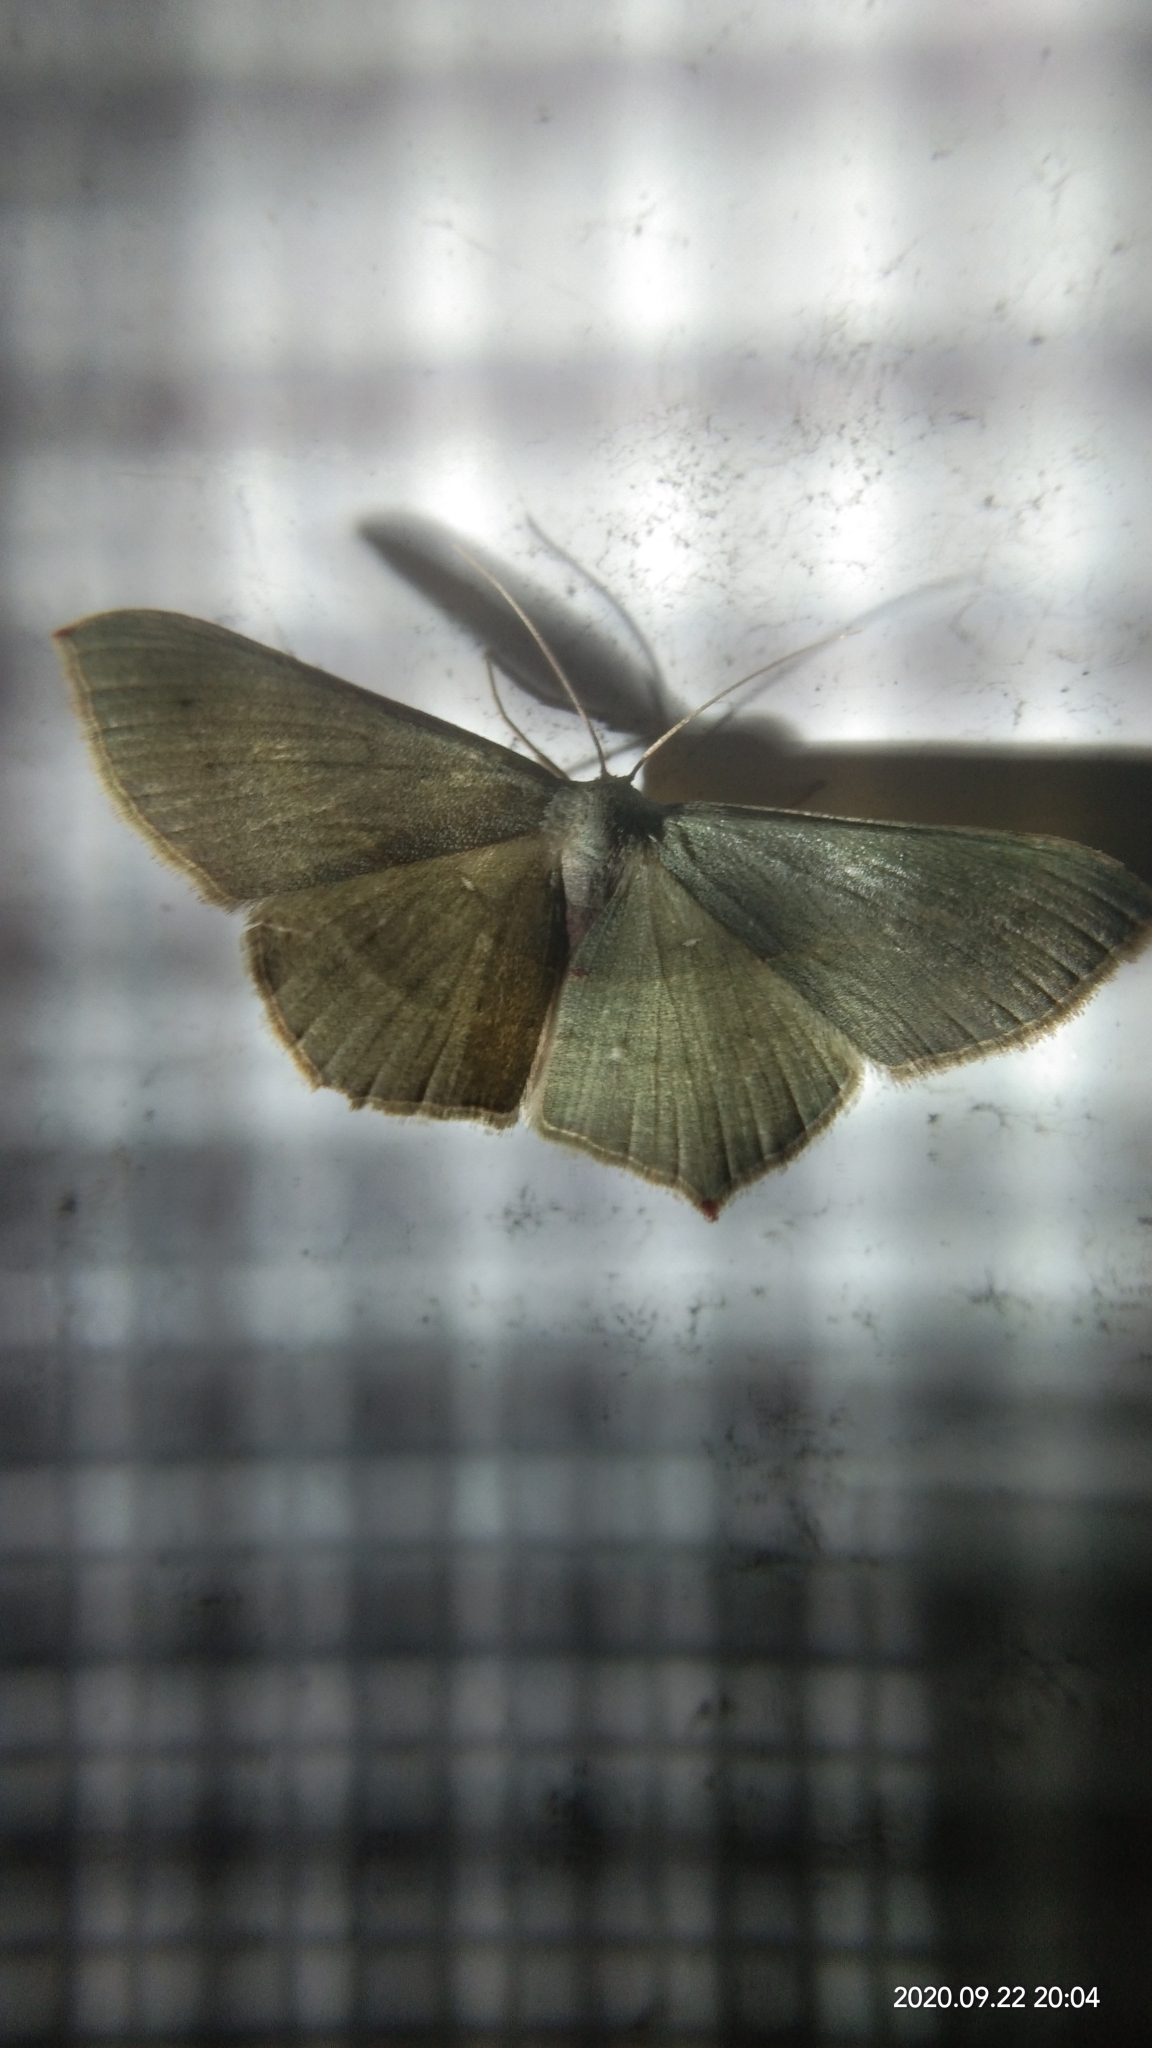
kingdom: Animalia
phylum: Arthropoda
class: Insecta
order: Lepidoptera
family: Geometridae
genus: Traminda
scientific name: Traminda mundissima
